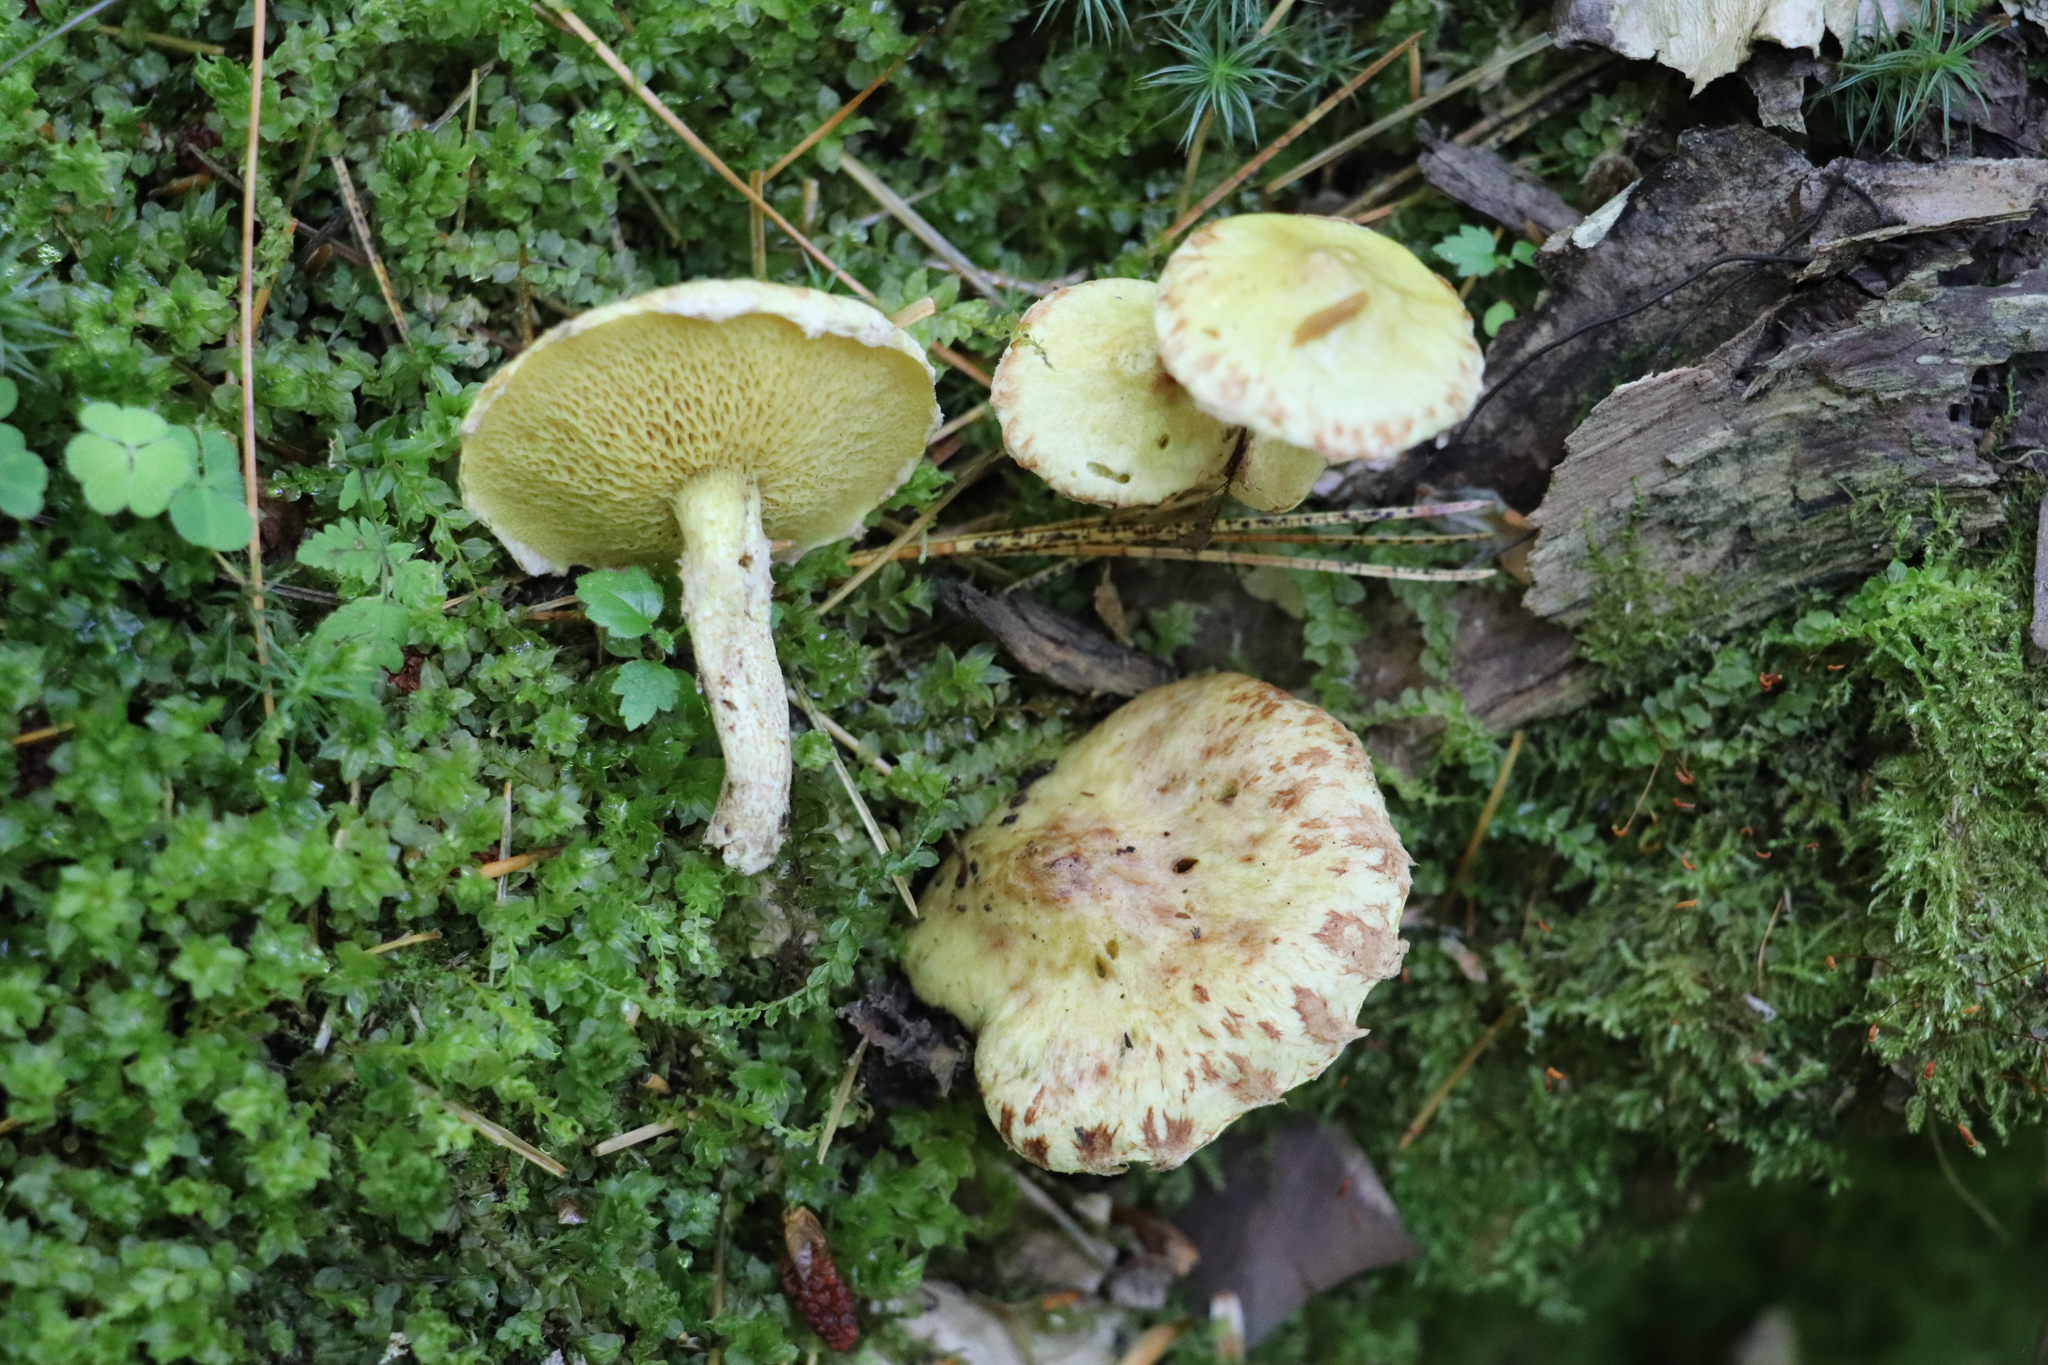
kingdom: Fungi
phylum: Basidiomycota
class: Agaricomycetes
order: Boletales
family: Suillaceae
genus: Suillus
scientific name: Suillus americanus
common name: Chicken fat mushroom
